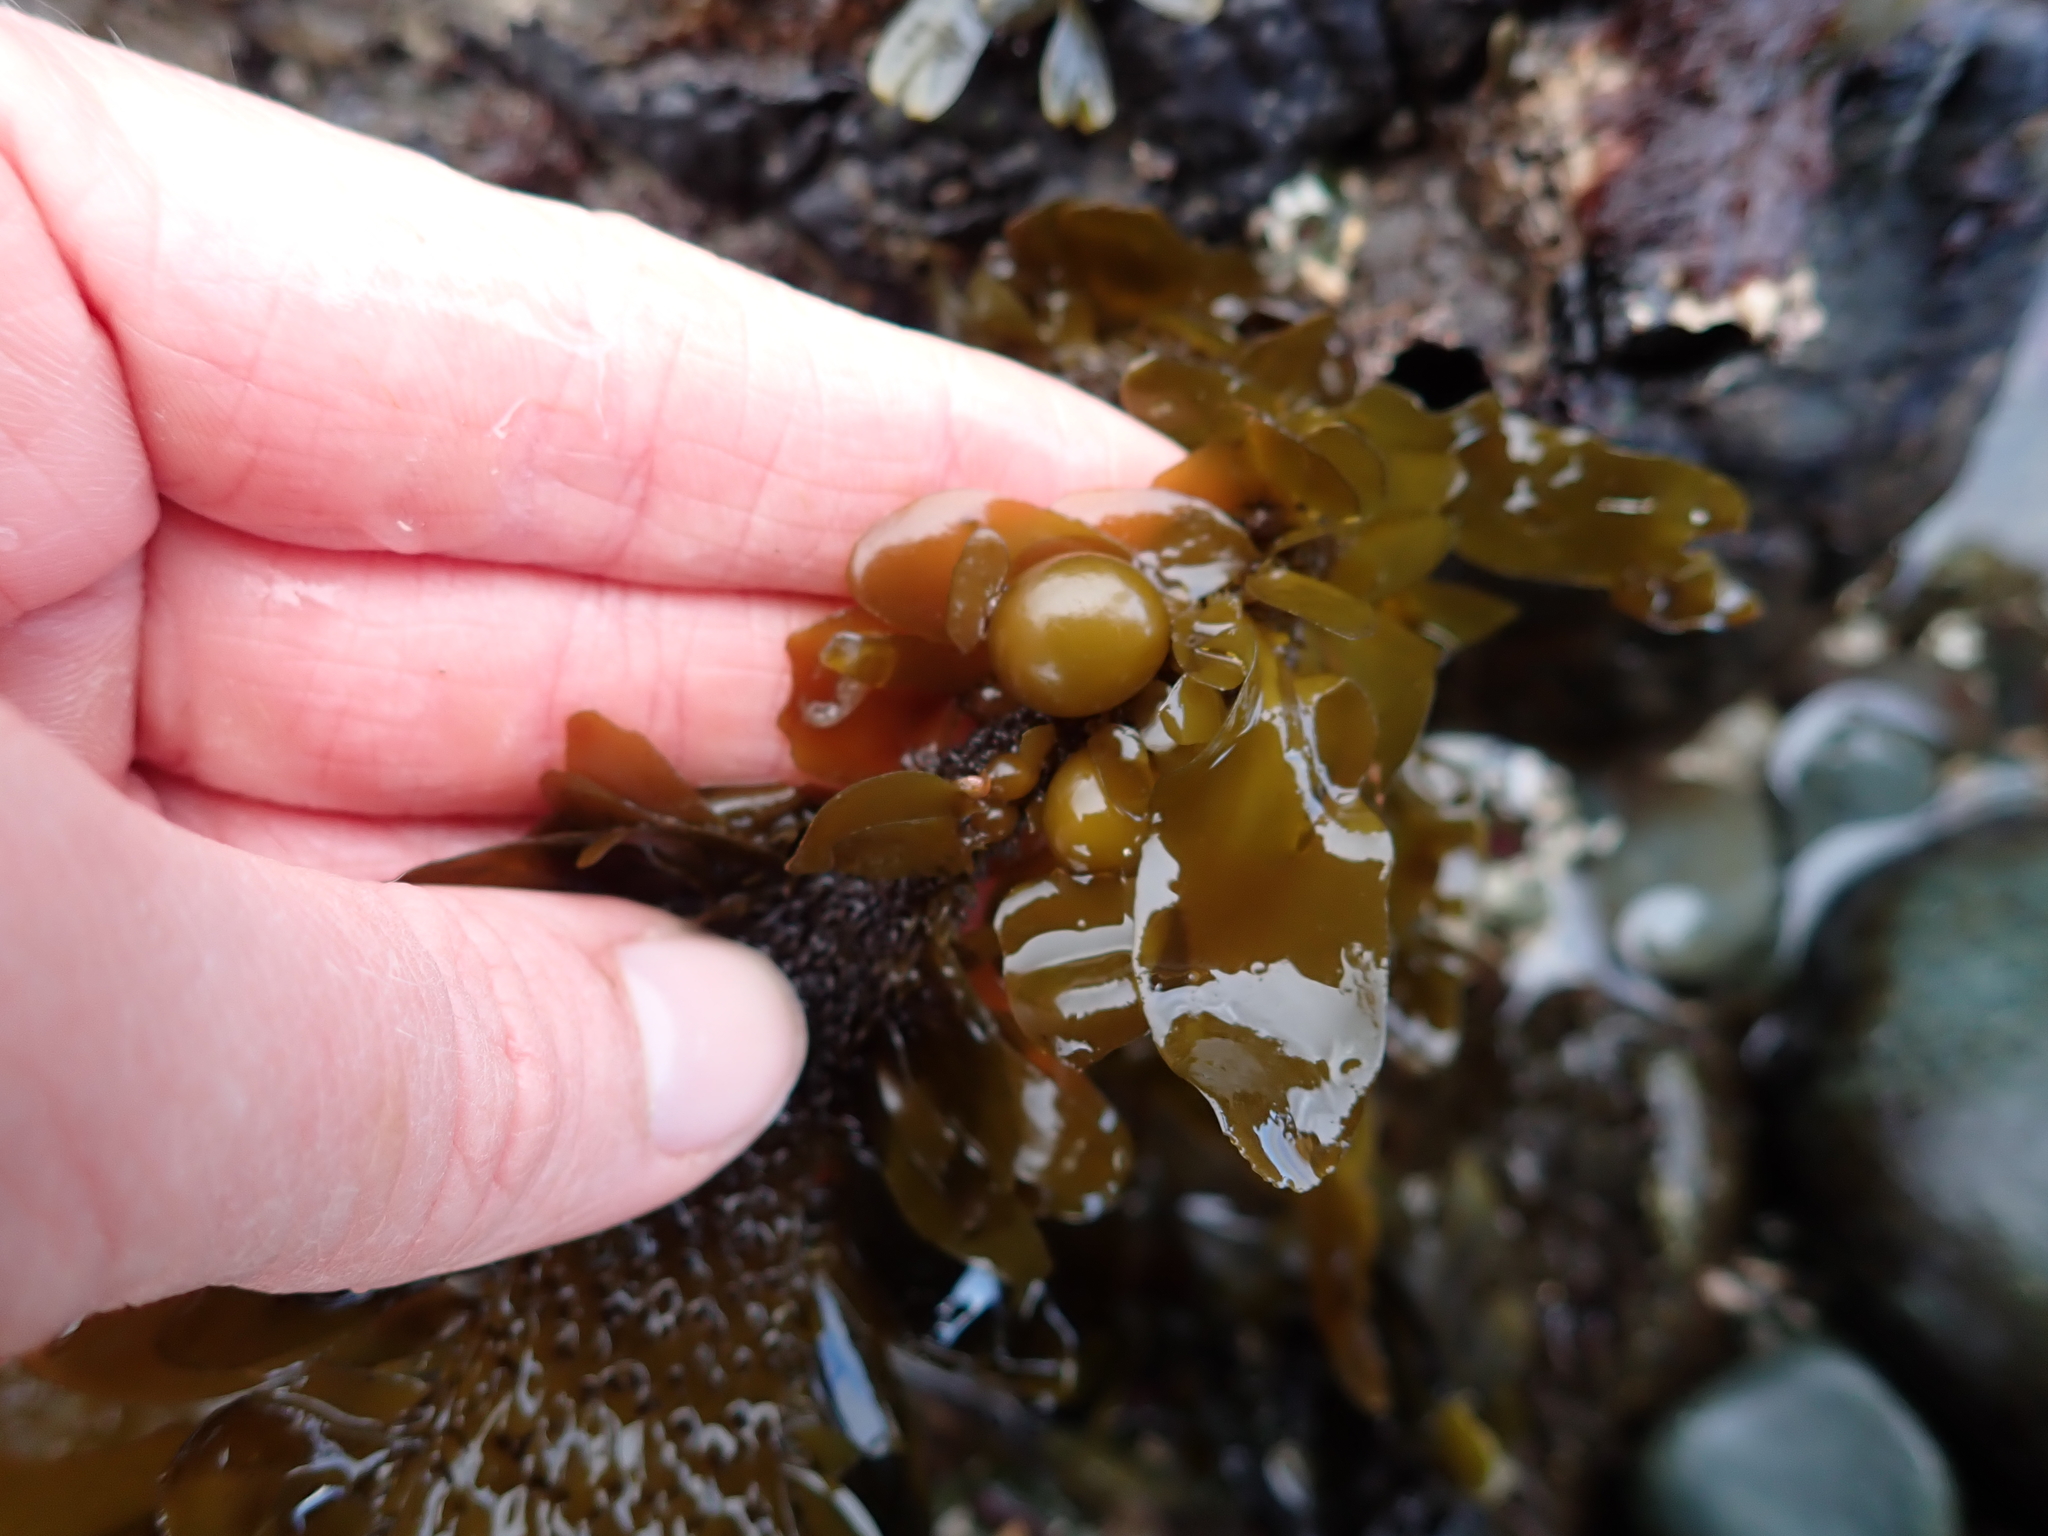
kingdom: Chromista
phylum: Ochrophyta
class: Phaeophyceae
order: Laminariales
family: Lessoniaceae
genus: Egregia
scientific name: Egregia menziesii
